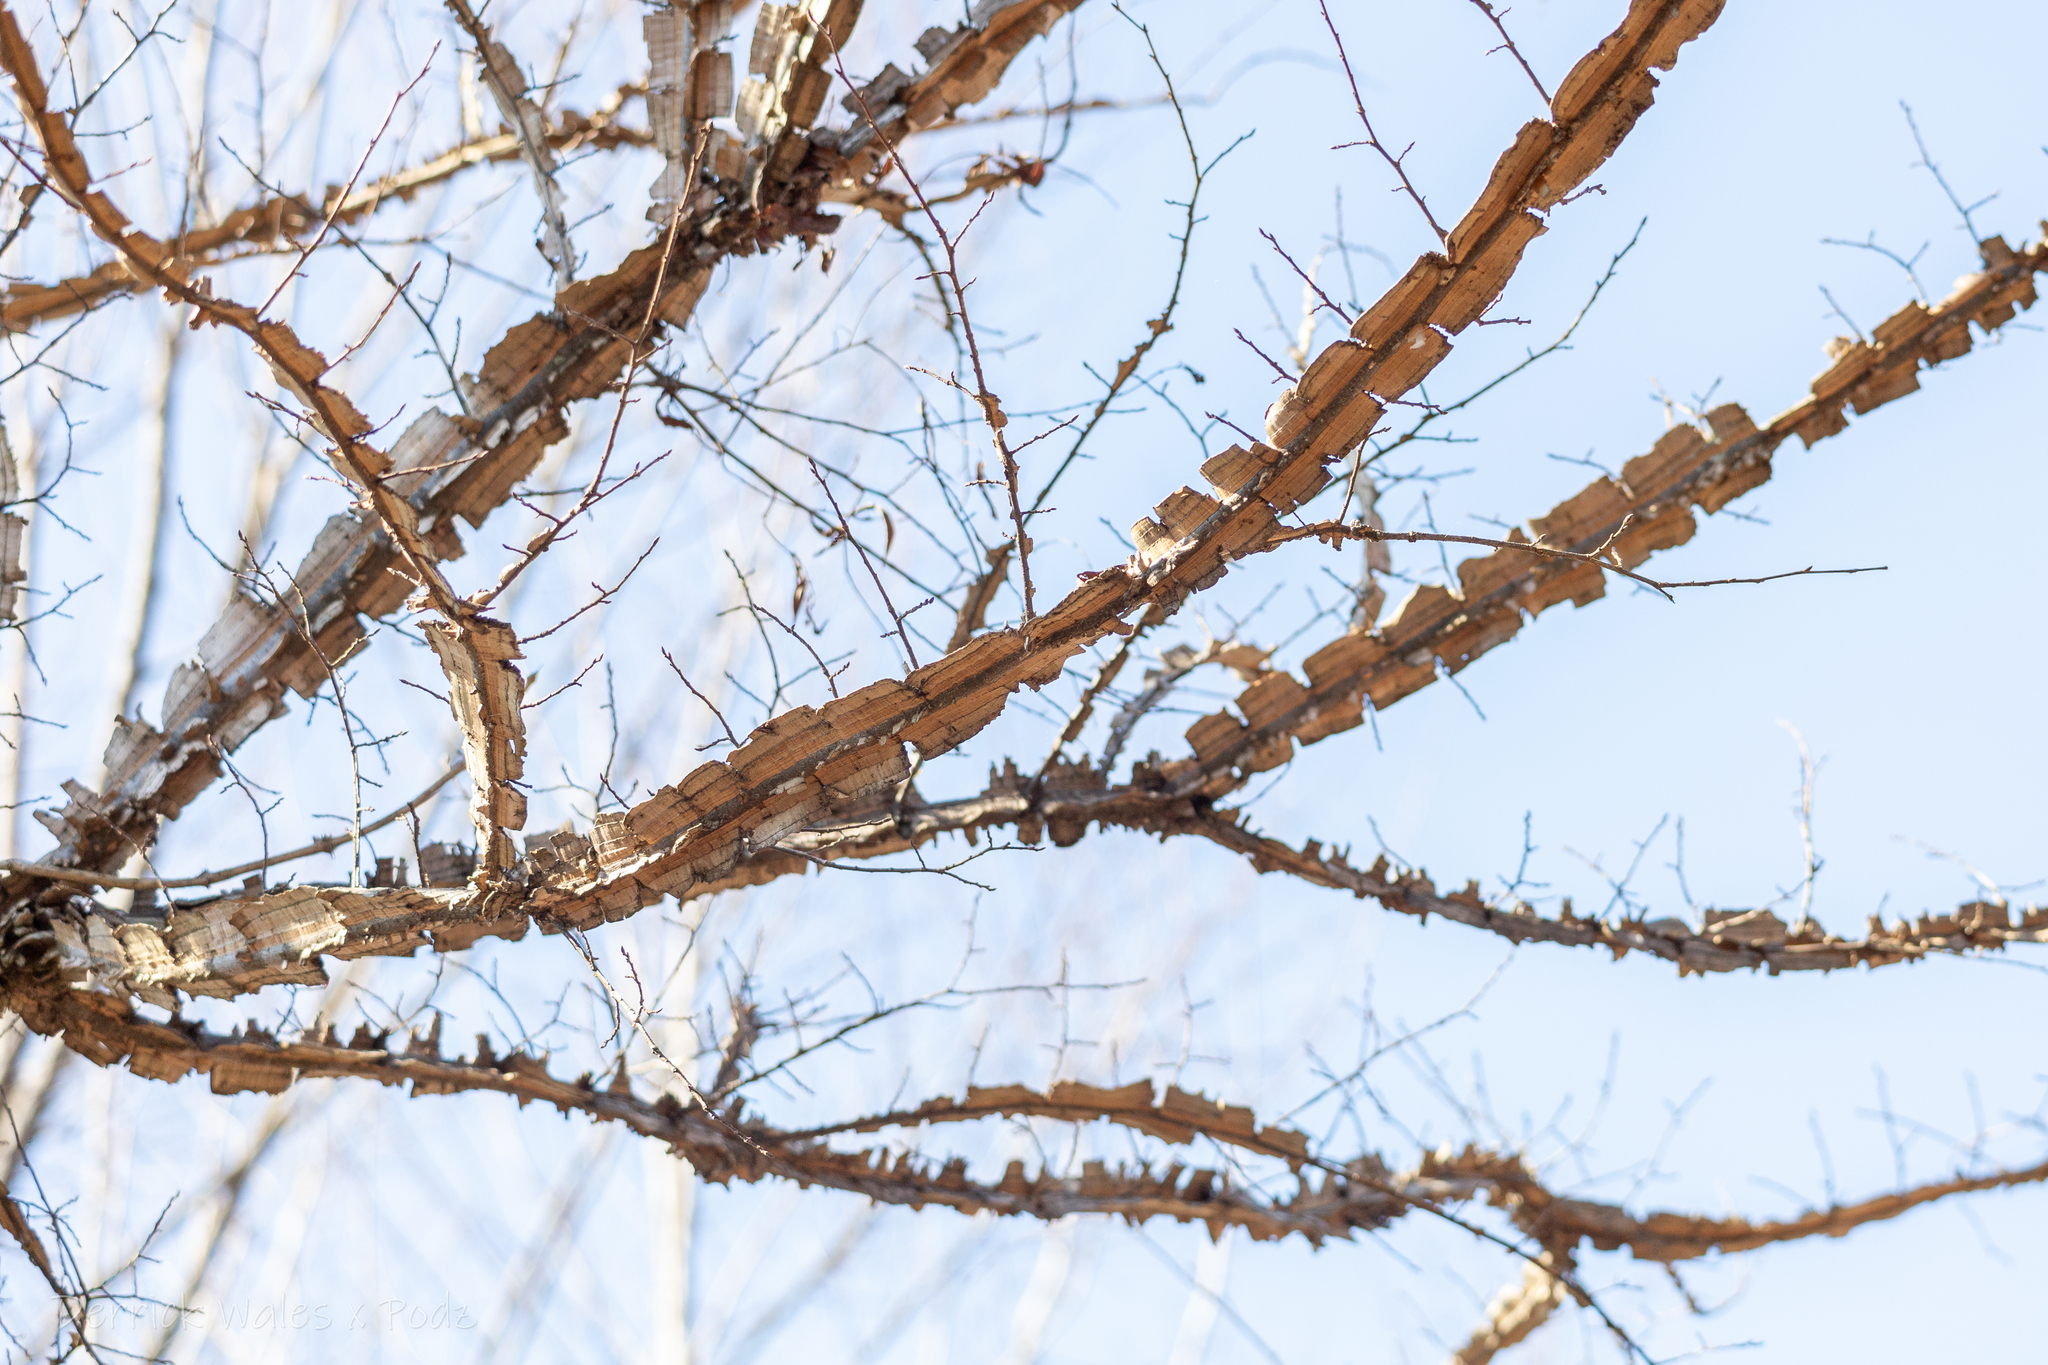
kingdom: Plantae
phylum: Tracheophyta
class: Magnoliopsida
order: Rosales
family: Ulmaceae
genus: Ulmus
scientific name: Ulmus alata
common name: Winged elm
